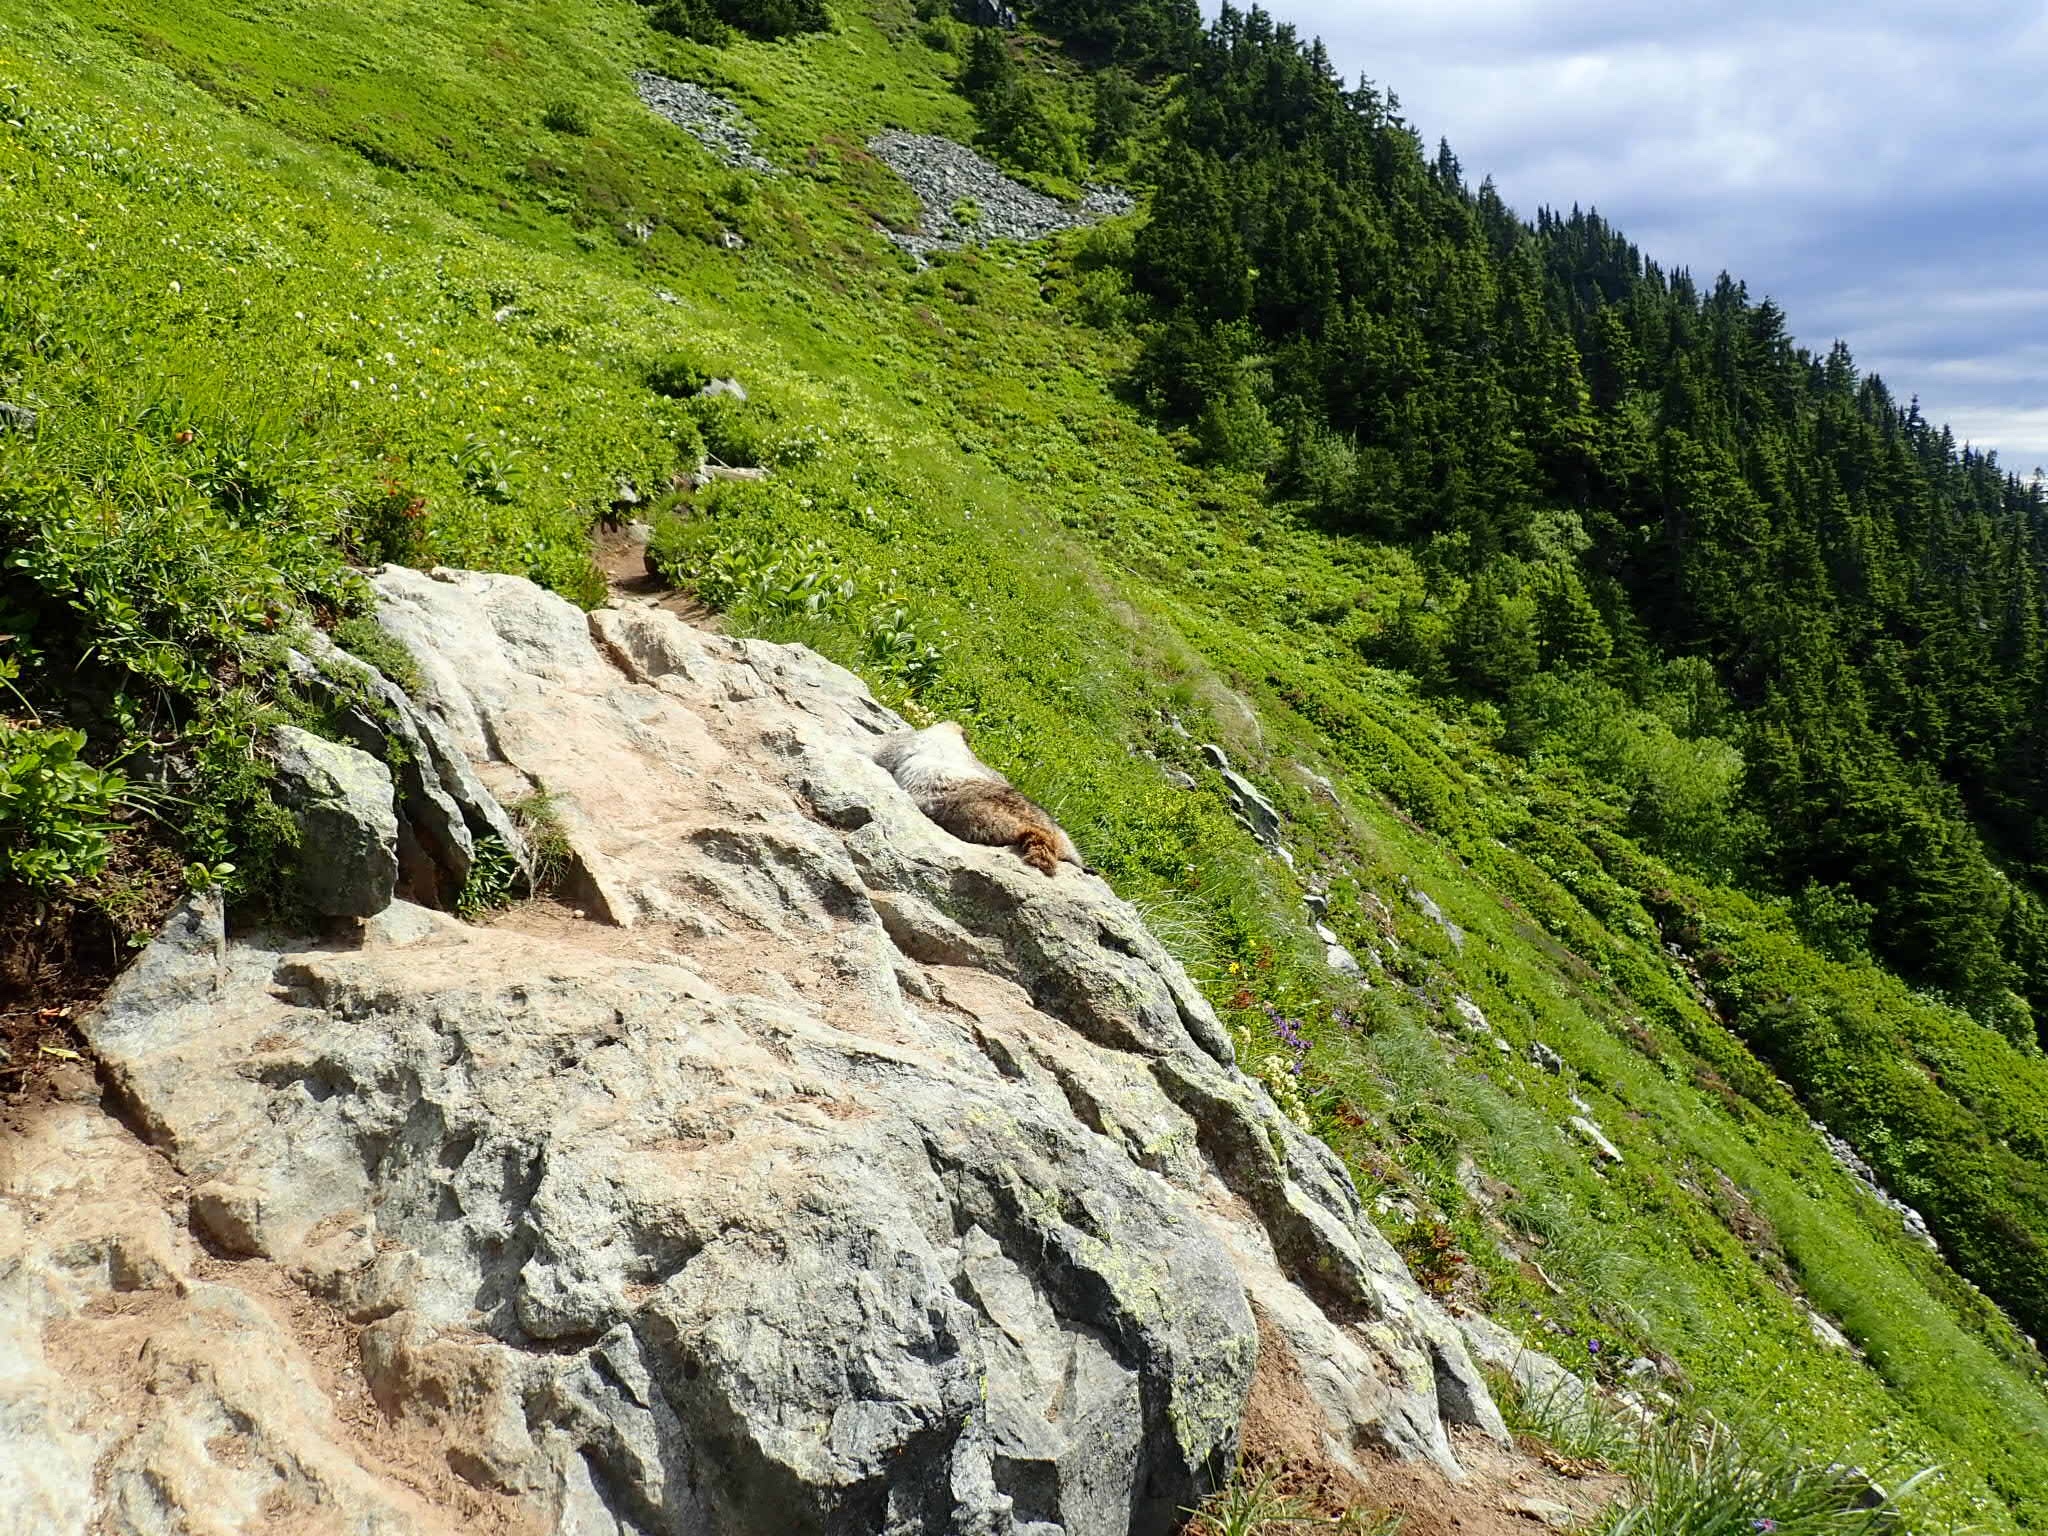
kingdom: Animalia
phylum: Chordata
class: Mammalia
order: Rodentia
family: Sciuridae
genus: Marmota
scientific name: Marmota caligata
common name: Hoary marmot
